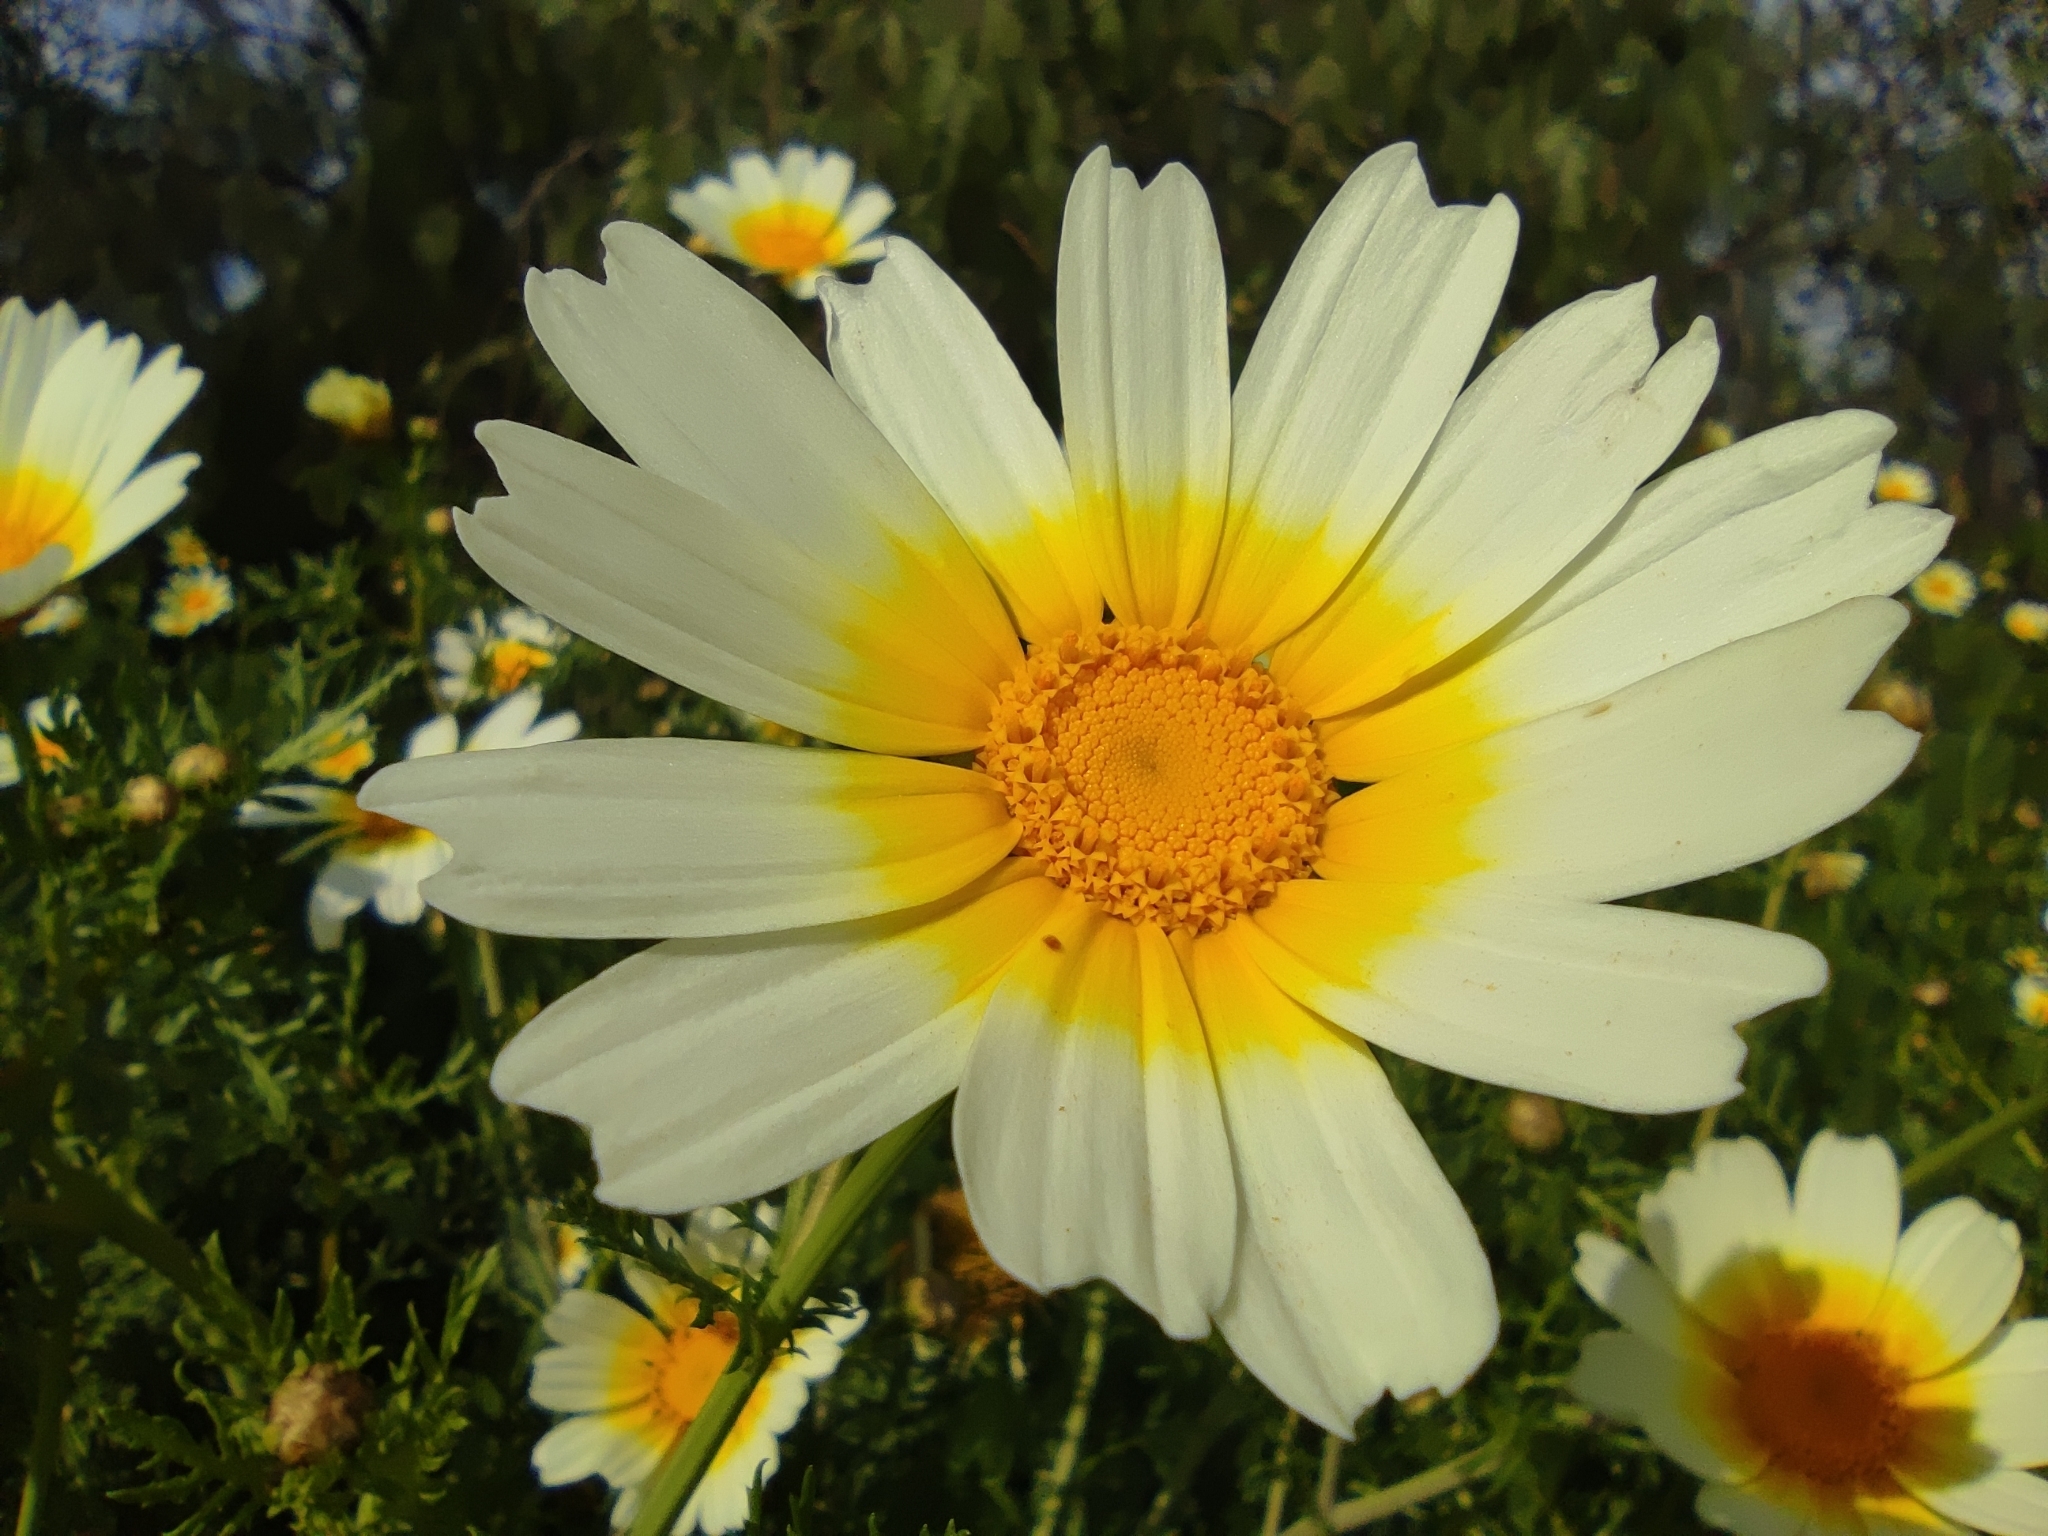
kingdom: Plantae
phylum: Tracheophyta
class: Magnoliopsida
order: Asterales
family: Asteraceae
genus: Glebionis
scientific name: Glebionis coronaria
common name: Crowndaisy
